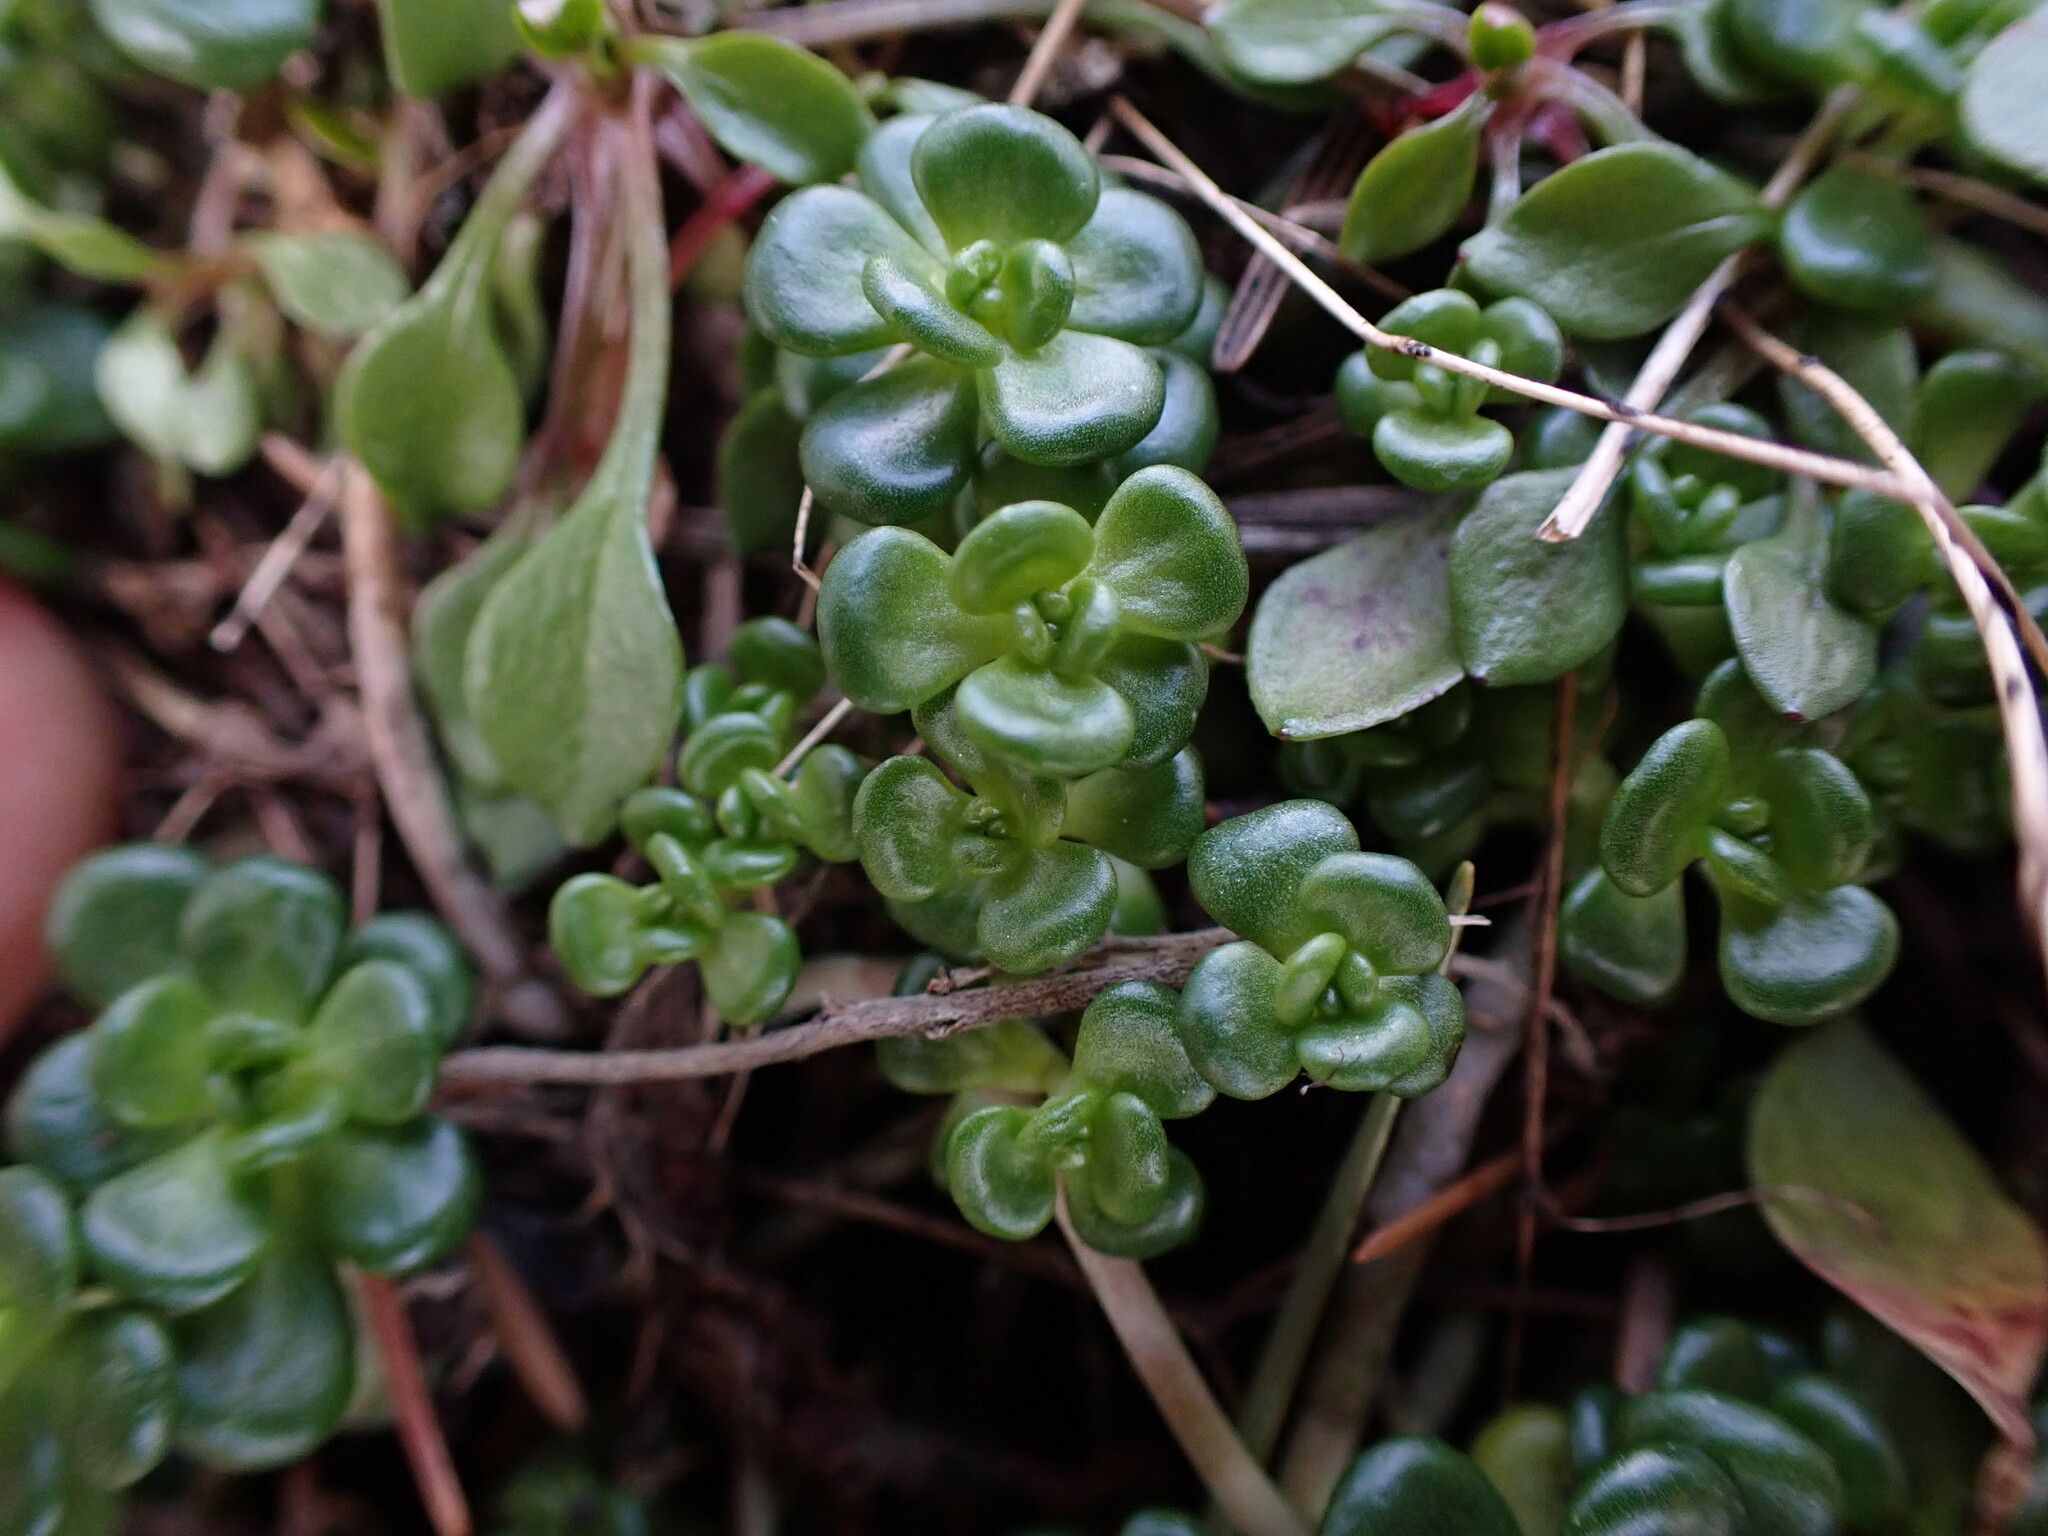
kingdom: Plantae
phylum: Tracheophyta
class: Magnoliopsida
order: Saxifragales
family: Crassulaceae
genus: Sedum
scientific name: Sedum oreganum
